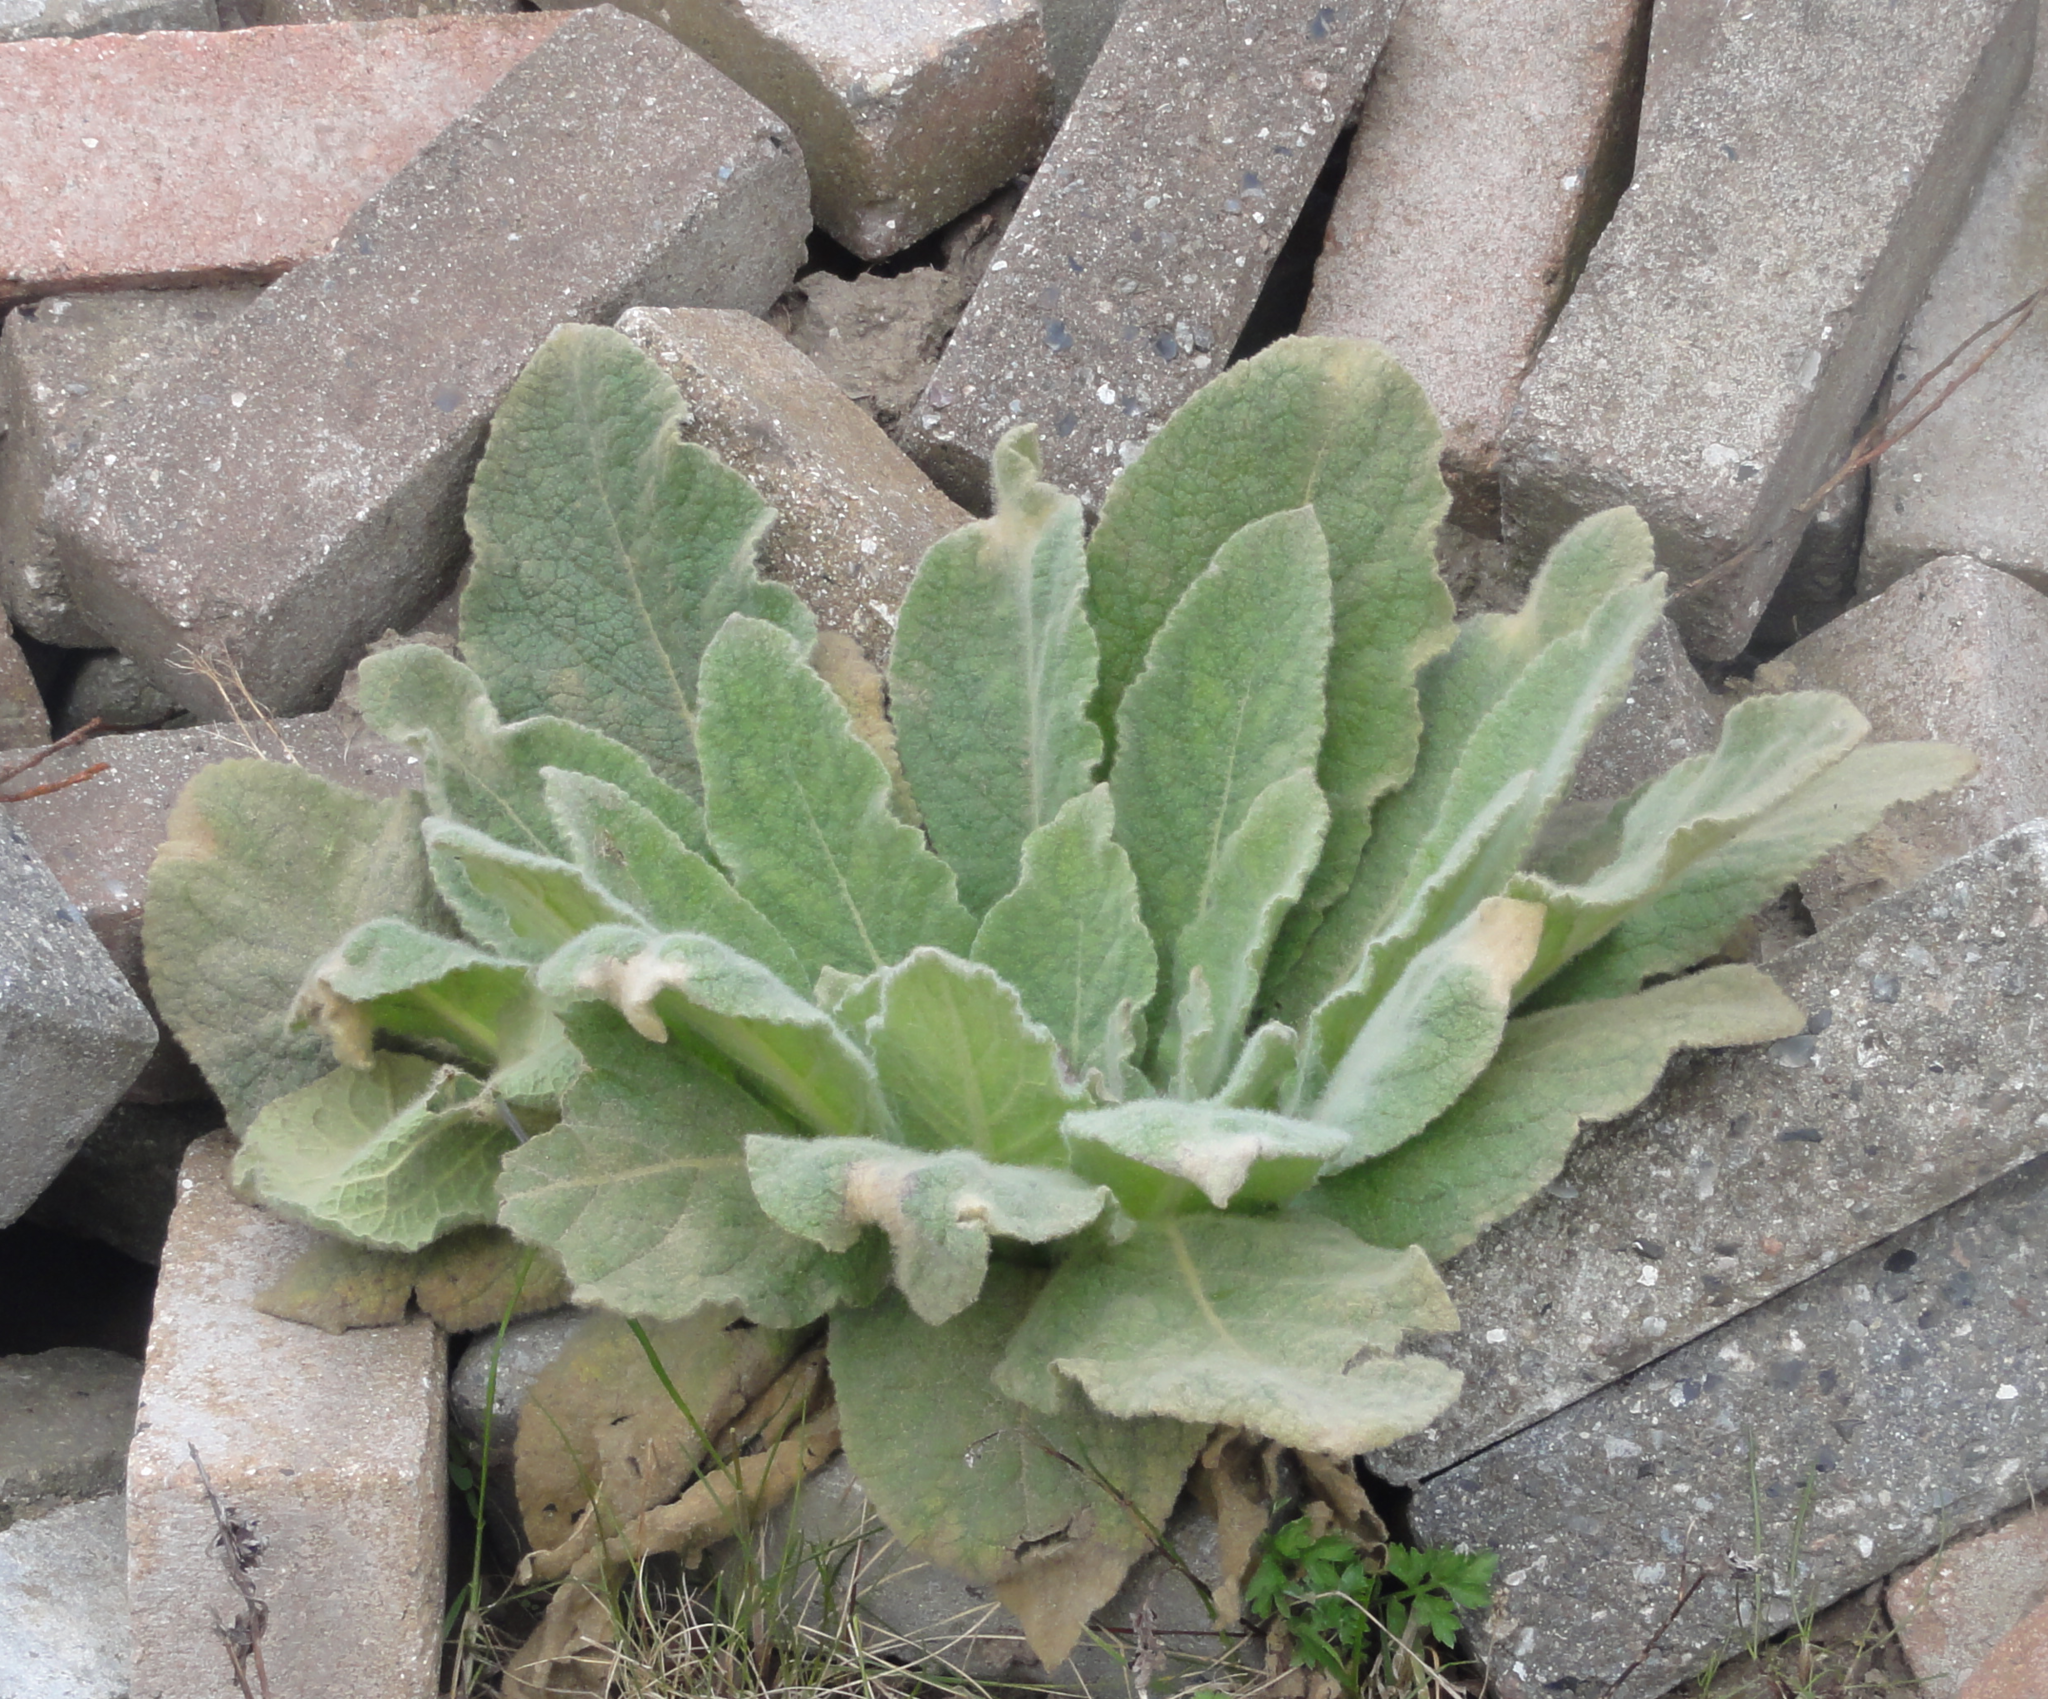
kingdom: Plantae
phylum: Tracheophyta
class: Magnoliopsida
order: Lamiales
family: Scrophulariaceae
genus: Verbascum
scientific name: Verbascum thapsus
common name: Common mullein
